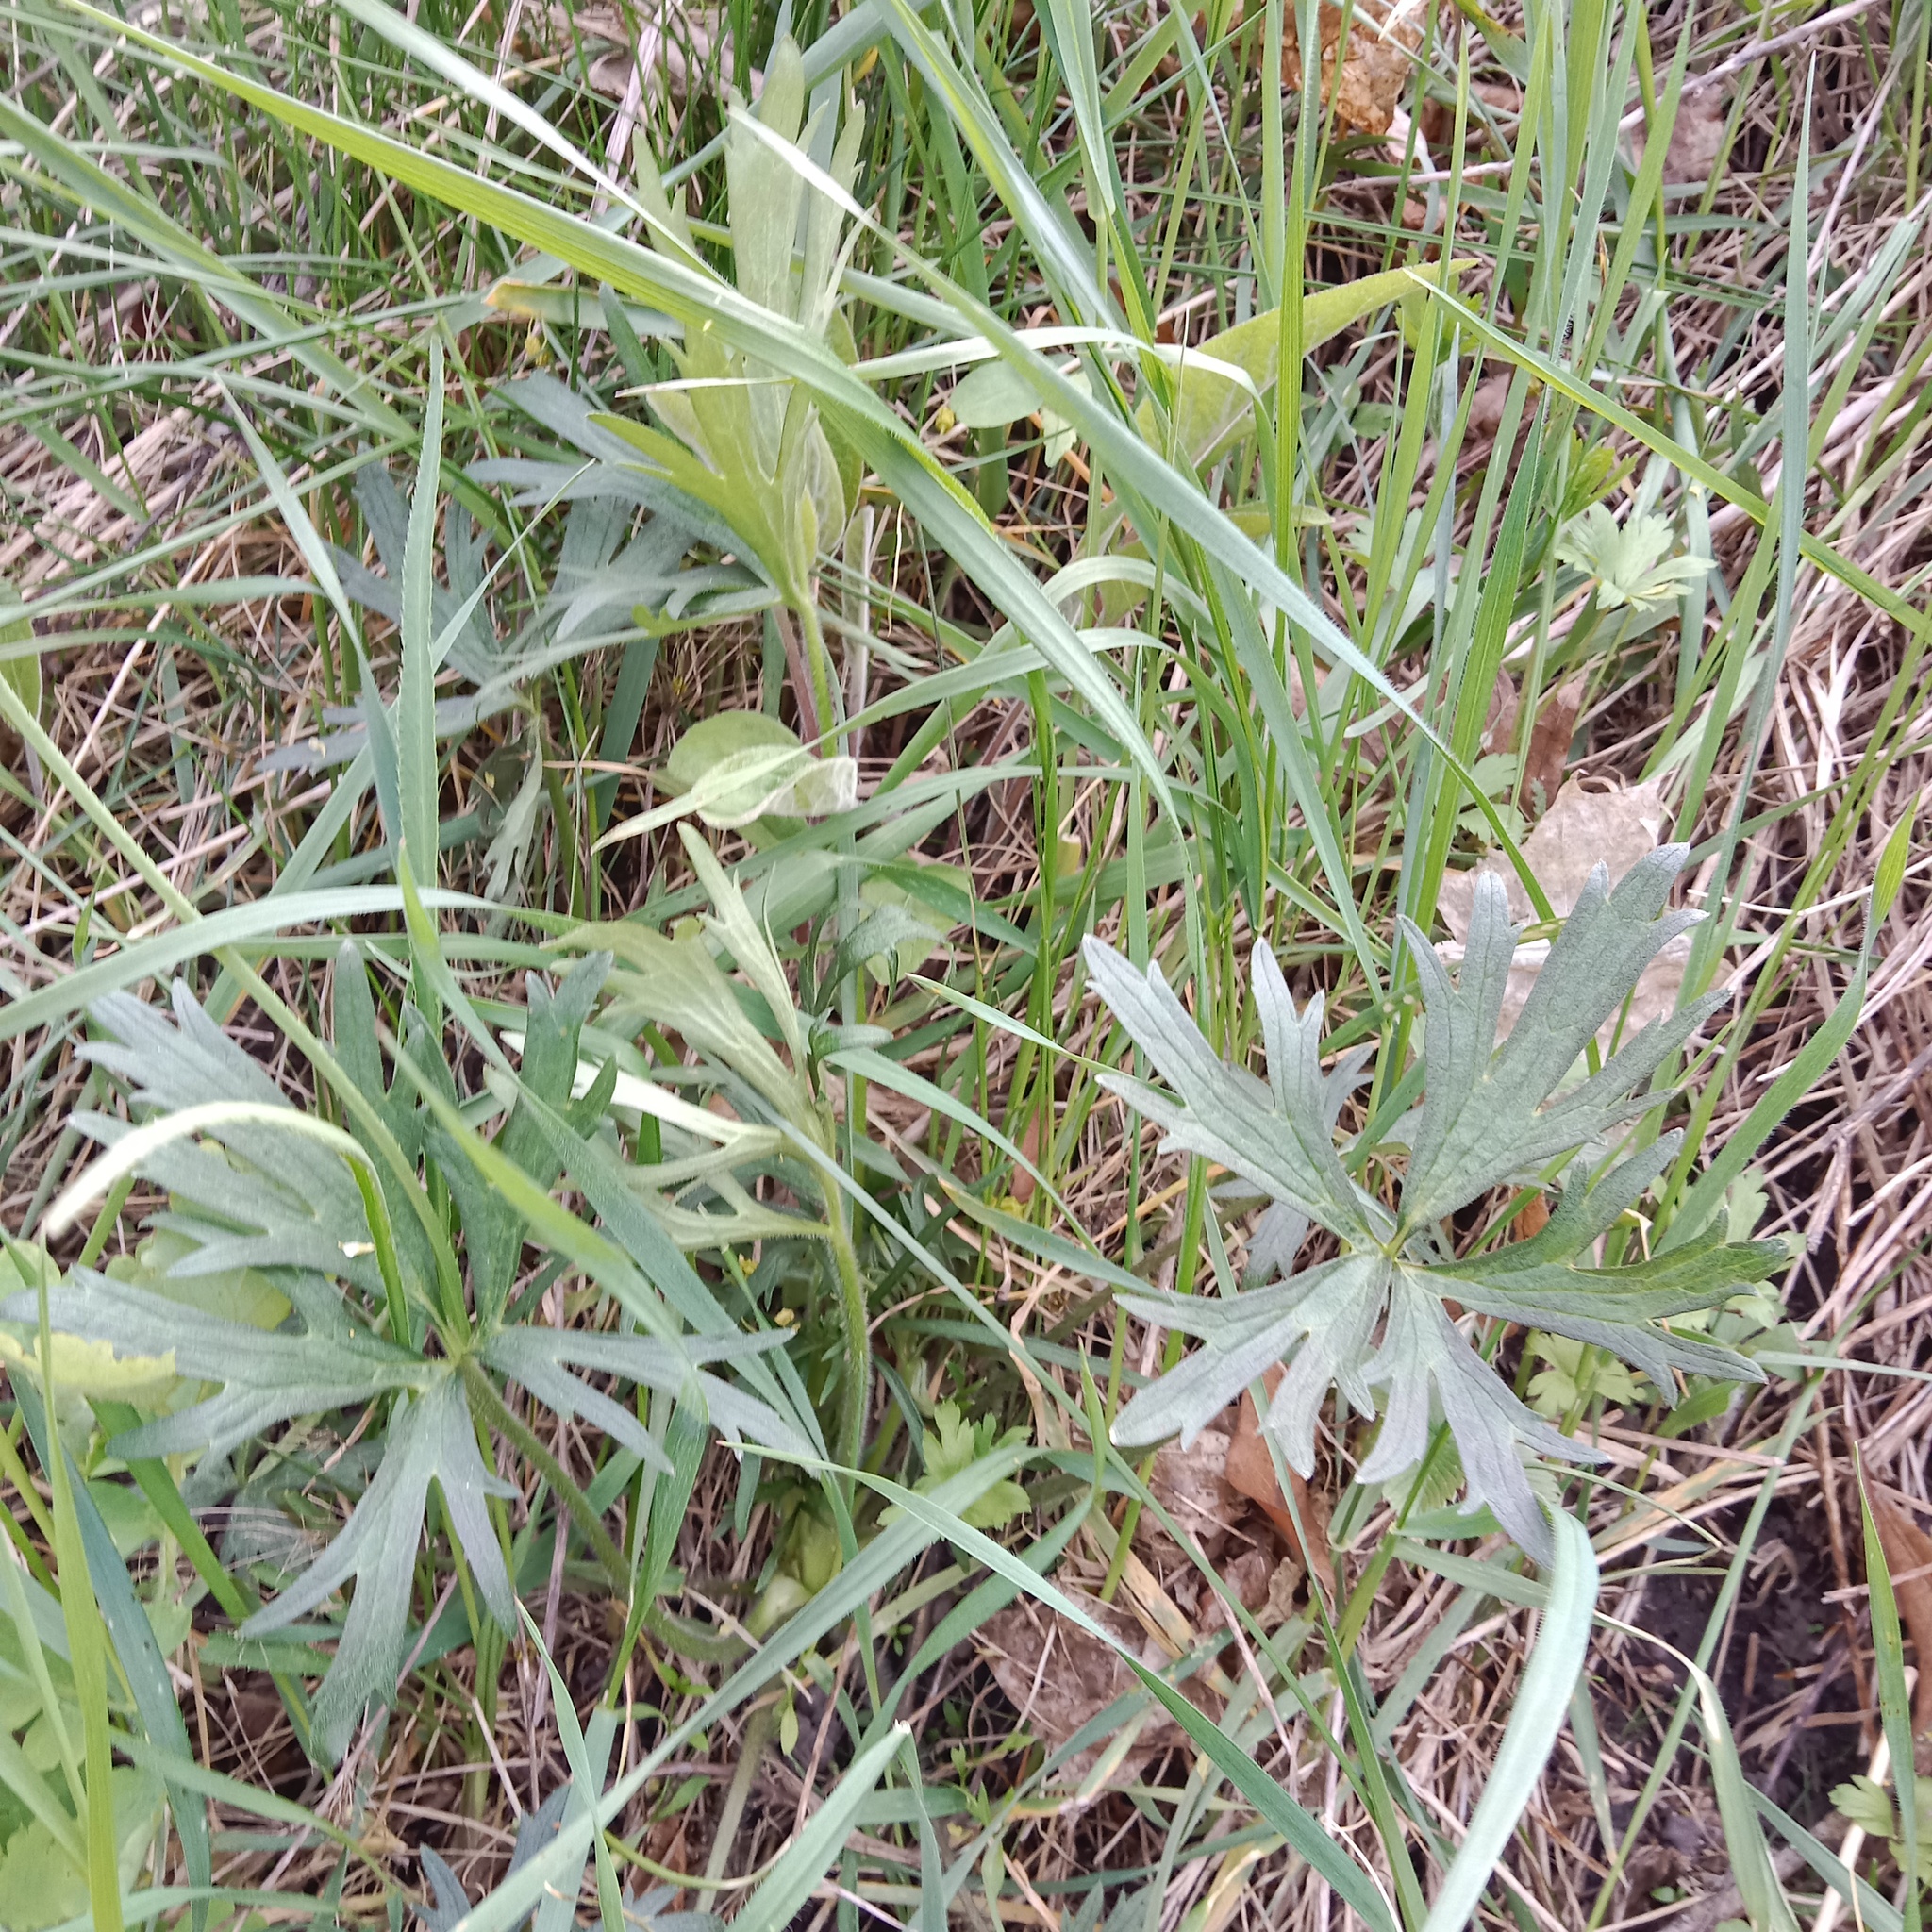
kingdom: Plantae
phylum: Tracheophyta
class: Magnoliopsida
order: Ranunculales
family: Ranunculaceae
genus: Ranunculus
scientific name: Ranunculus polyanthemos
